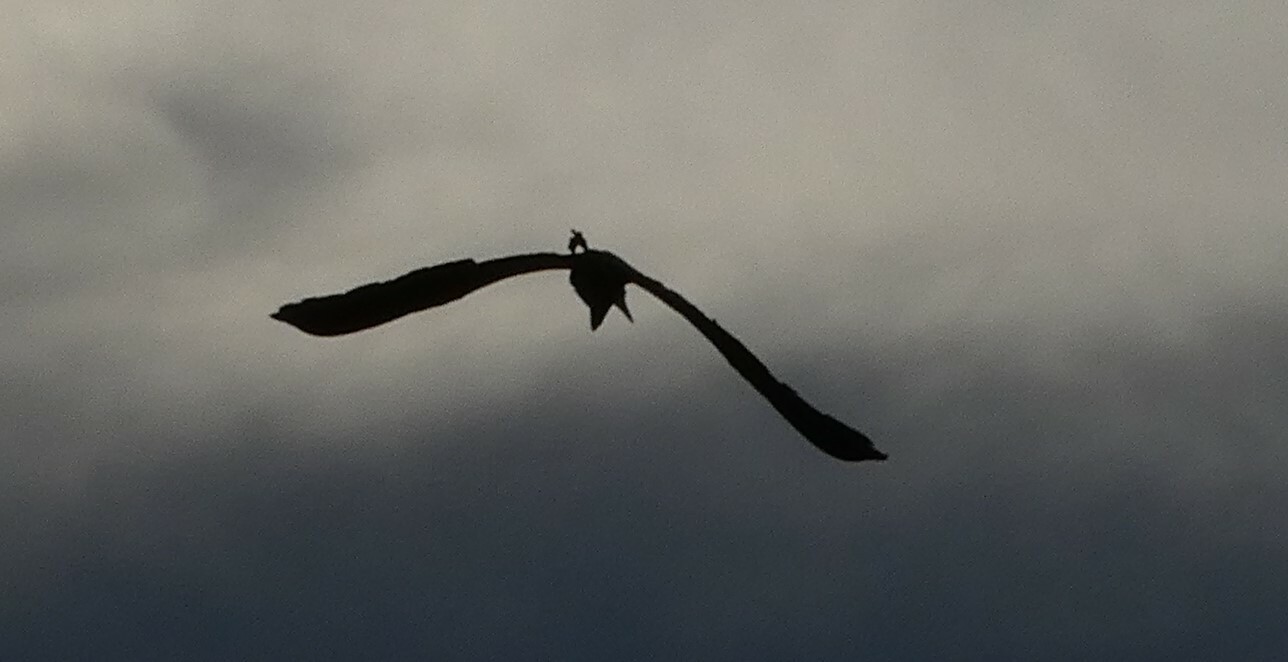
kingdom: Animalia
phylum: Chordata
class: Aves
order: Pelecaniformes
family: Ardeidae
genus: Ardea
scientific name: Ardea herodias
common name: Great blue heron
